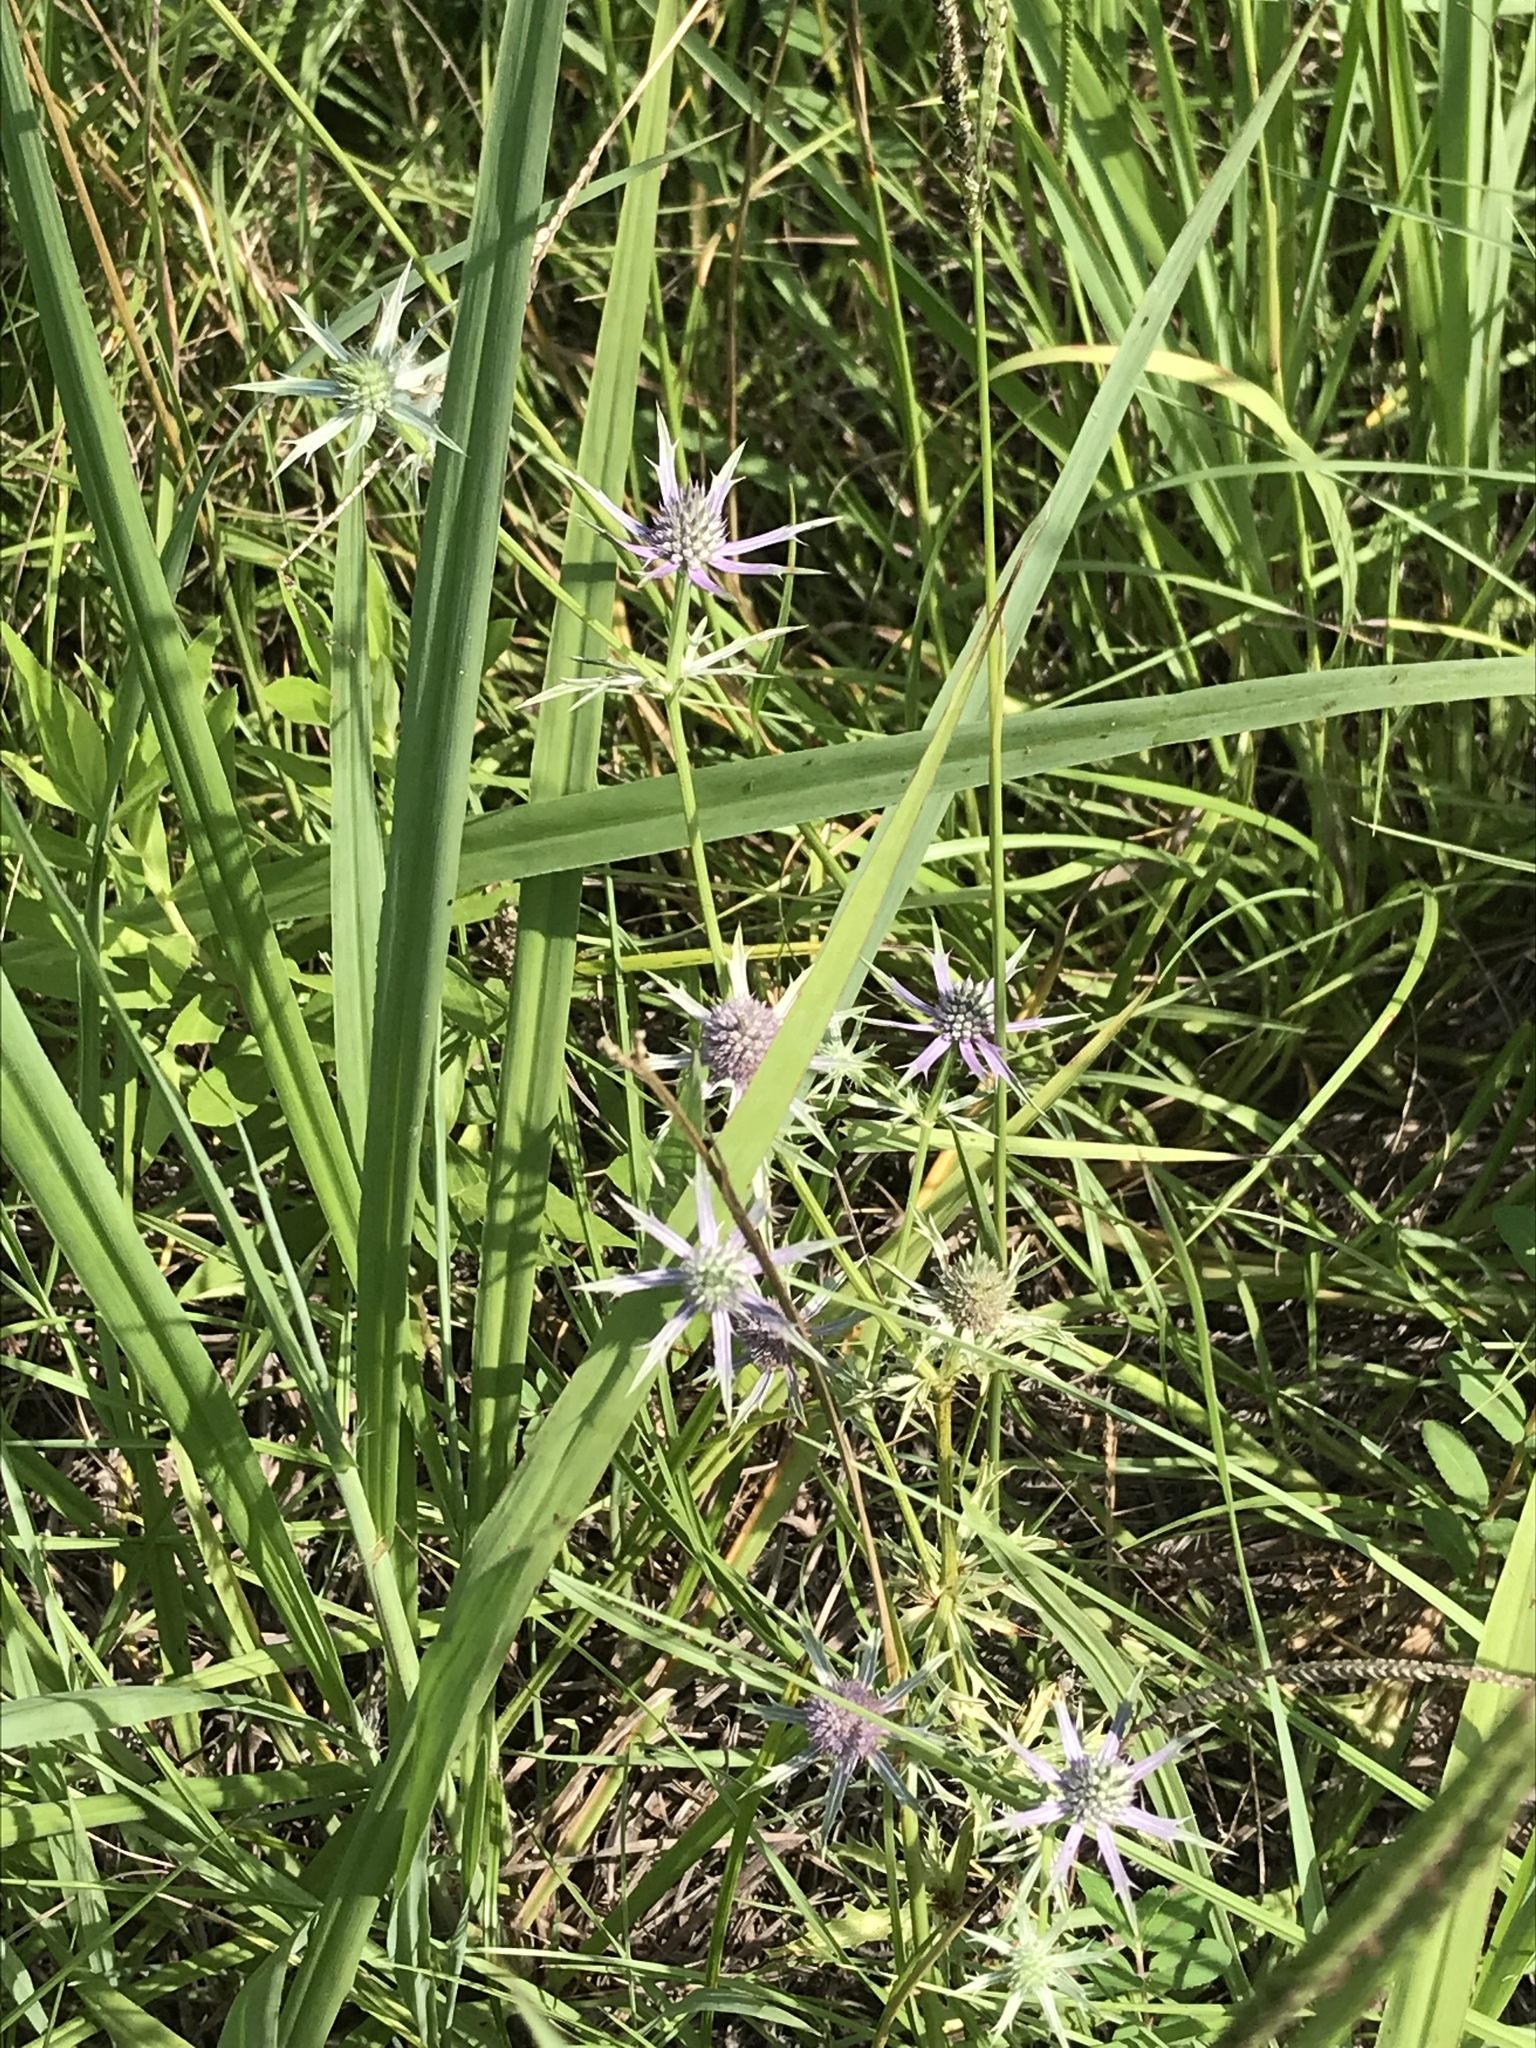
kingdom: Plantae
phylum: Tracheophyta
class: Magnoliopsida
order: Apiales
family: Apiaceae
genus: Eryngium
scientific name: Eryngium hookeri
